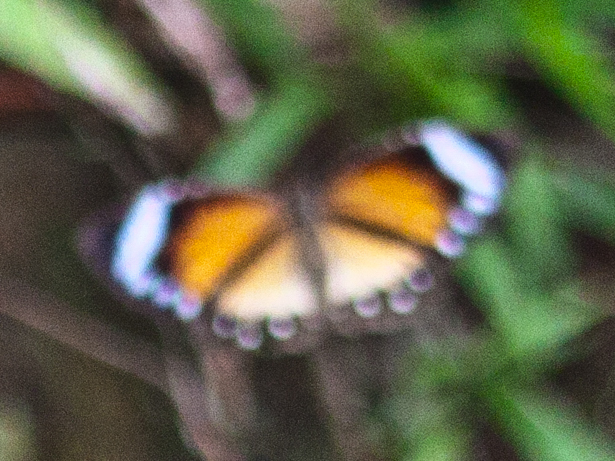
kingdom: Animalia
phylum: Arthropoda
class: Insecta
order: Lepidoptera
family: Nymphalidae
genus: Elymnias
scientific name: Elymnias hypermnestra
